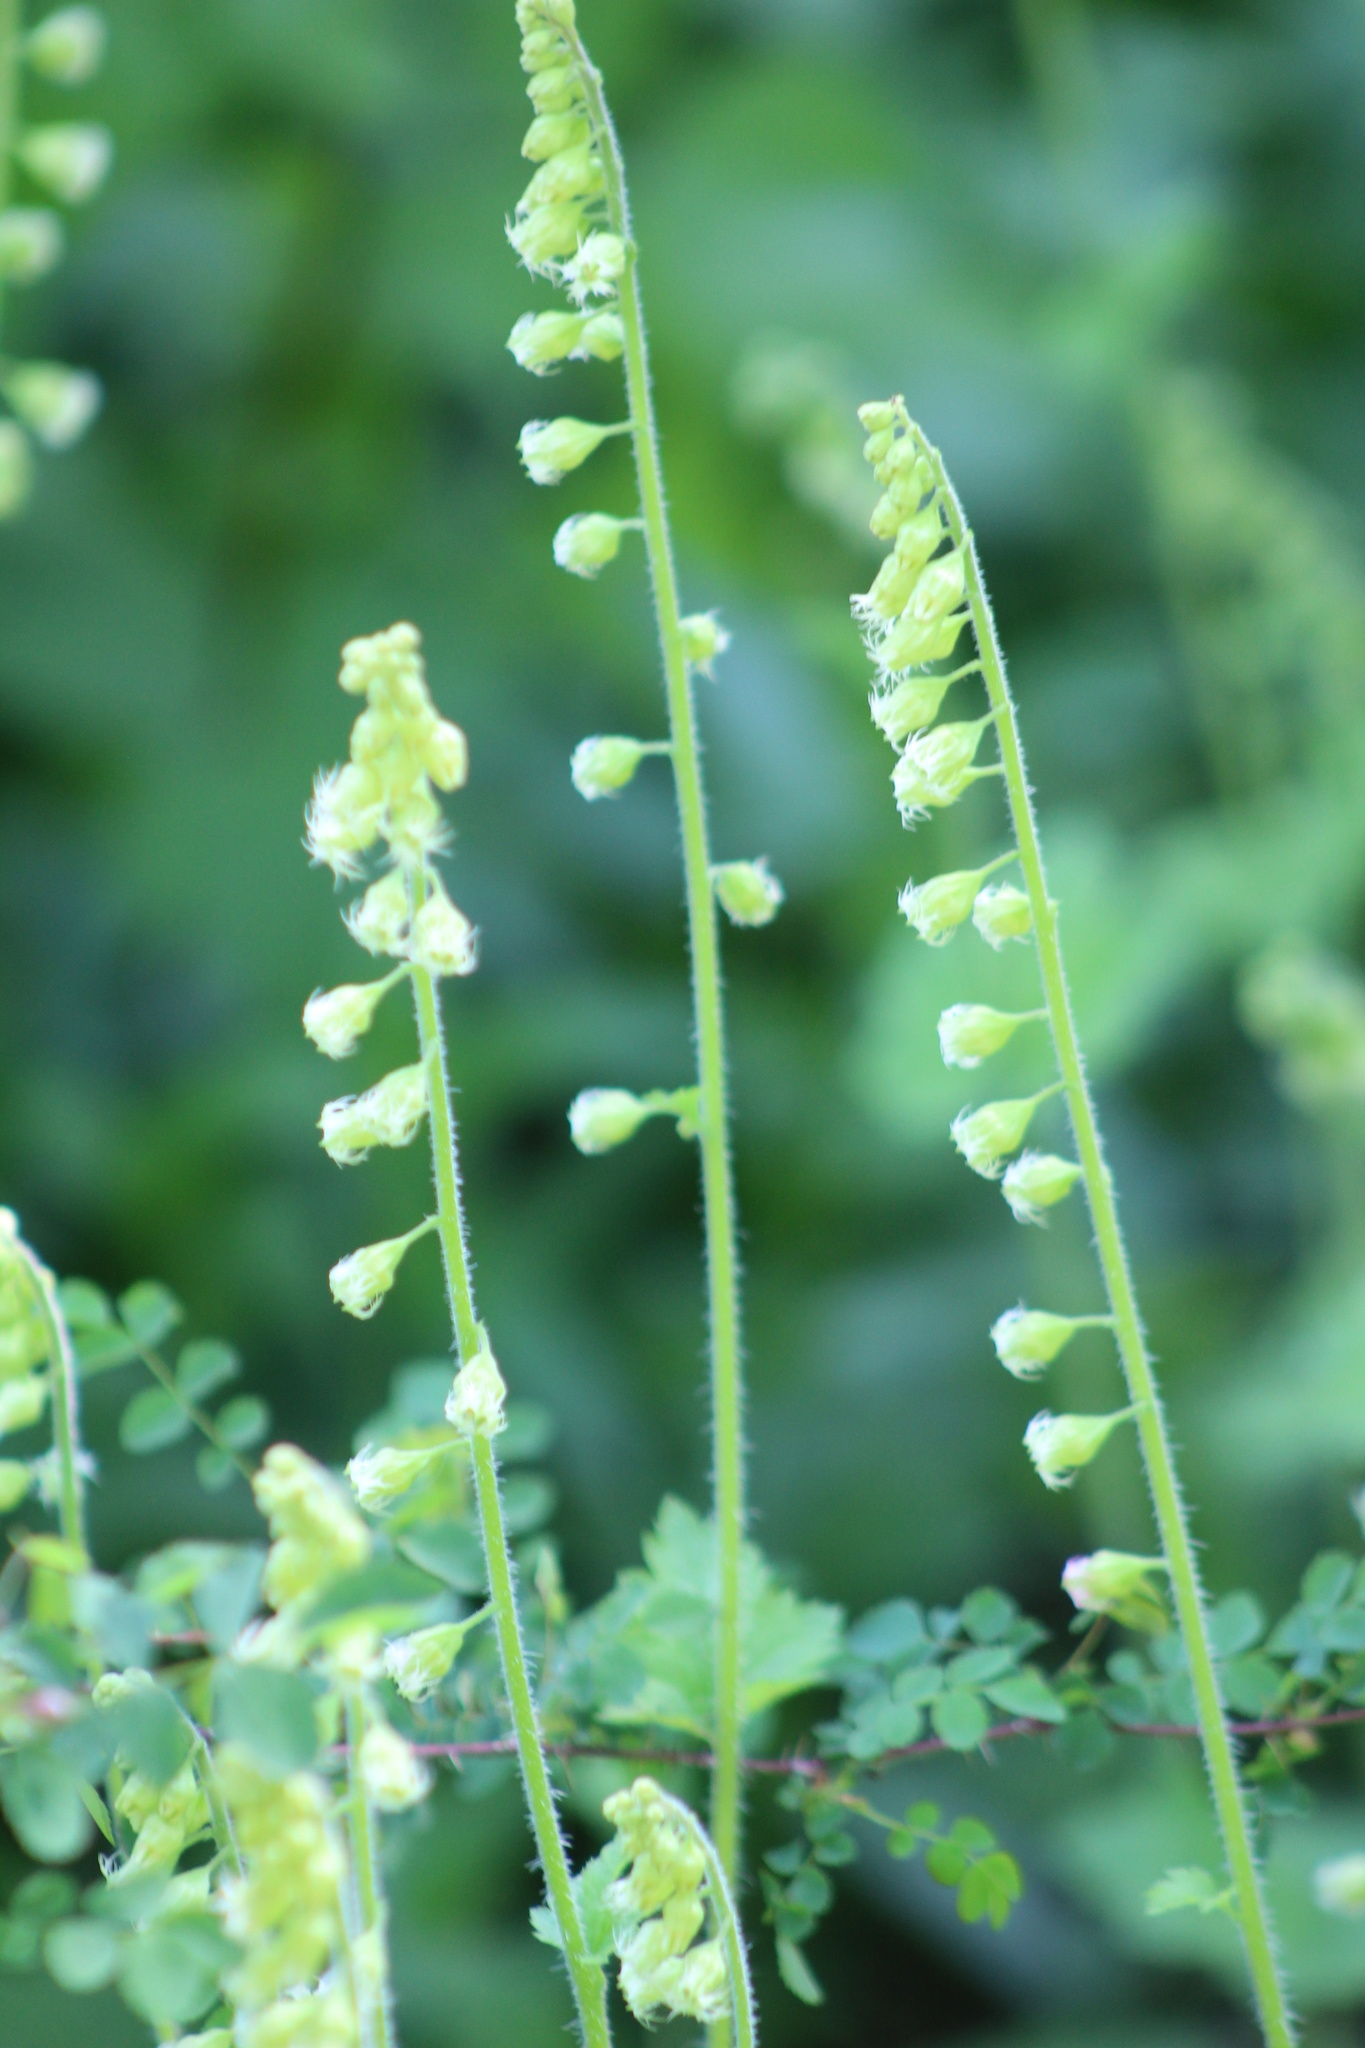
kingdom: Plantae
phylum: Tracheophyta
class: Magnoliopsida
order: Saxifragales
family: Saxifragaceae
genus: Tellima
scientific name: Tellima grandiflora
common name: Fringecups
